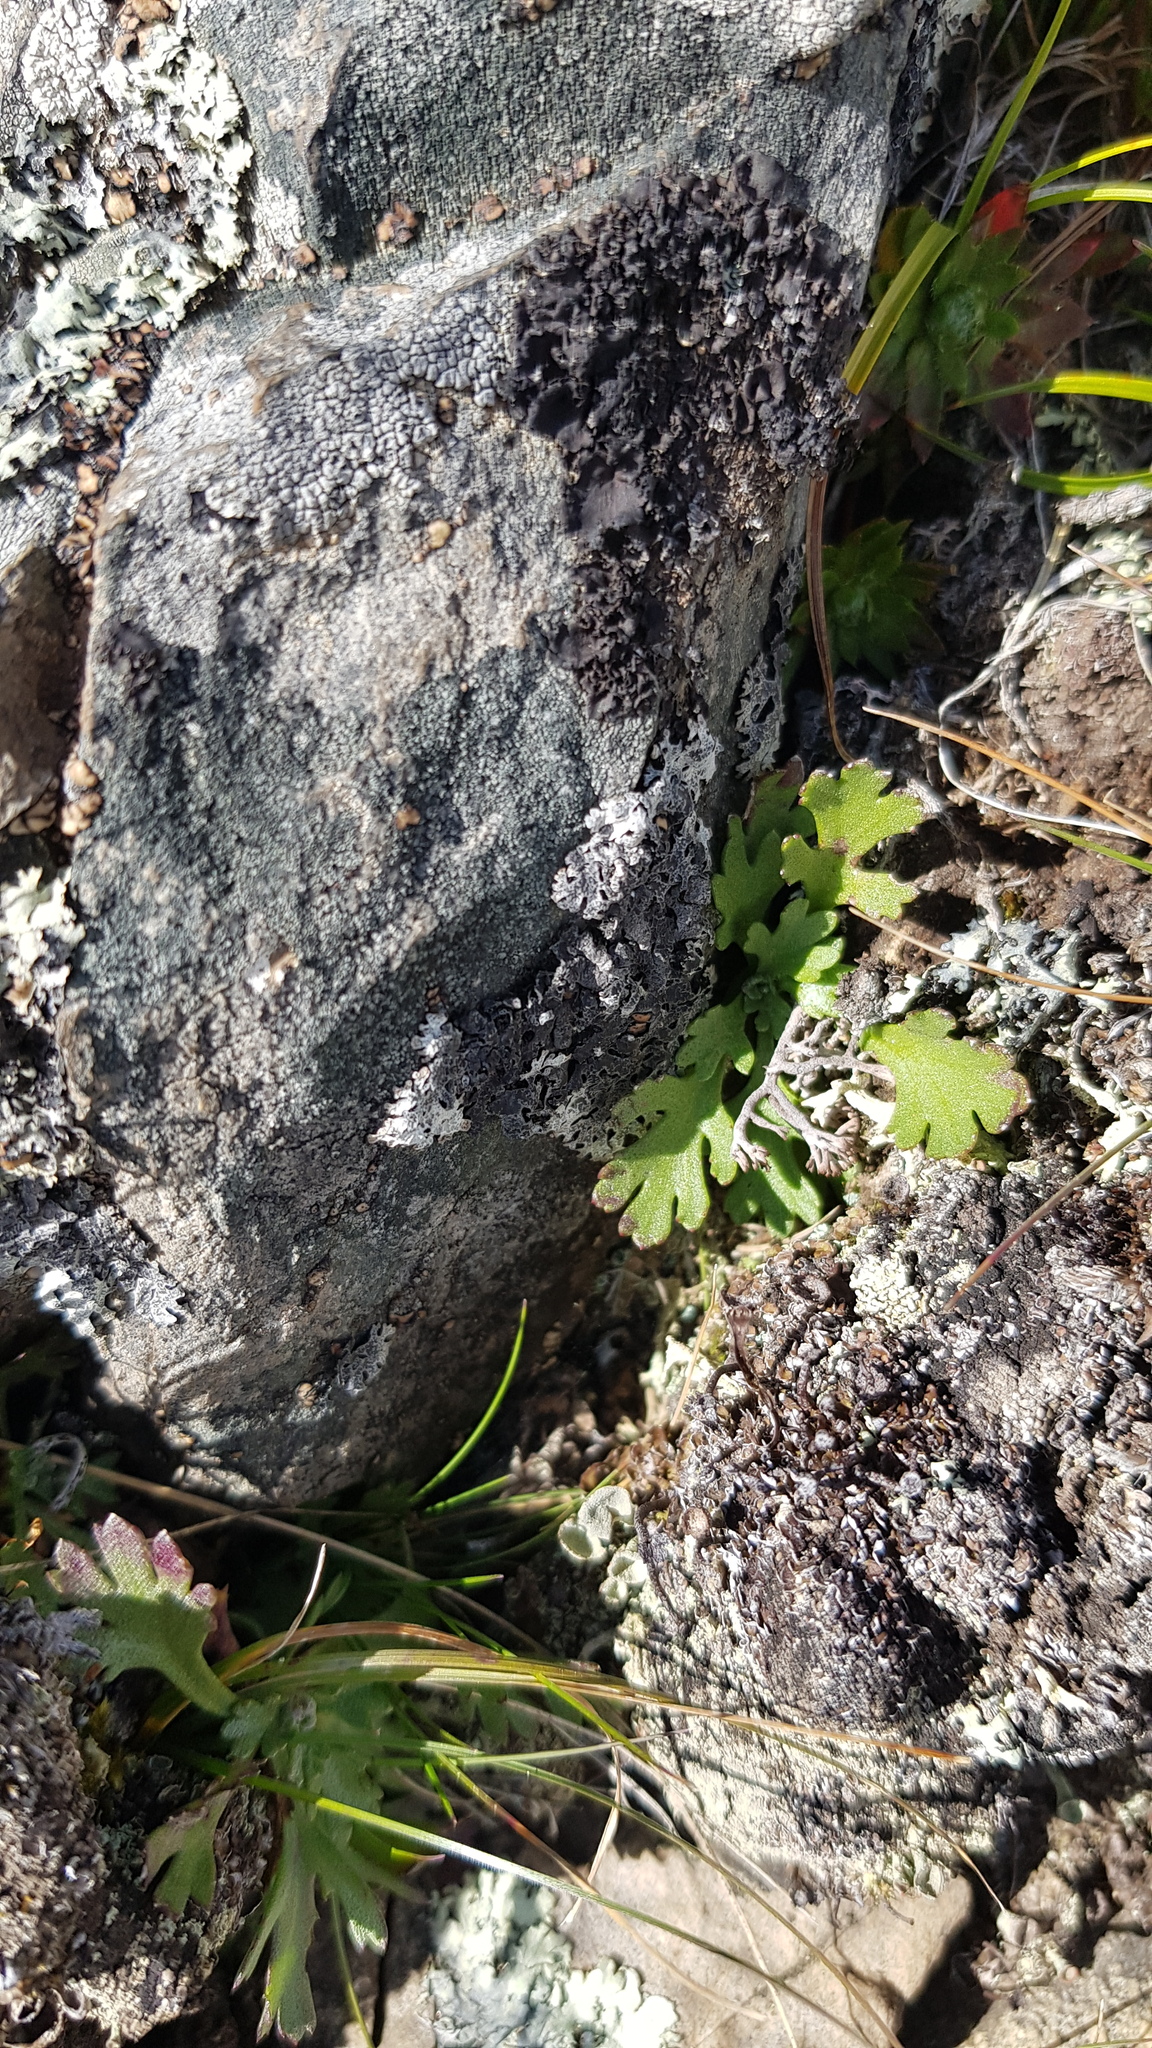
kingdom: Plantae
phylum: Tracheophyta
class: Polypodiopsida
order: Polypodiales
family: Pteridaceae
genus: Aleuritopteris
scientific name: Aleuritopteris argentea
